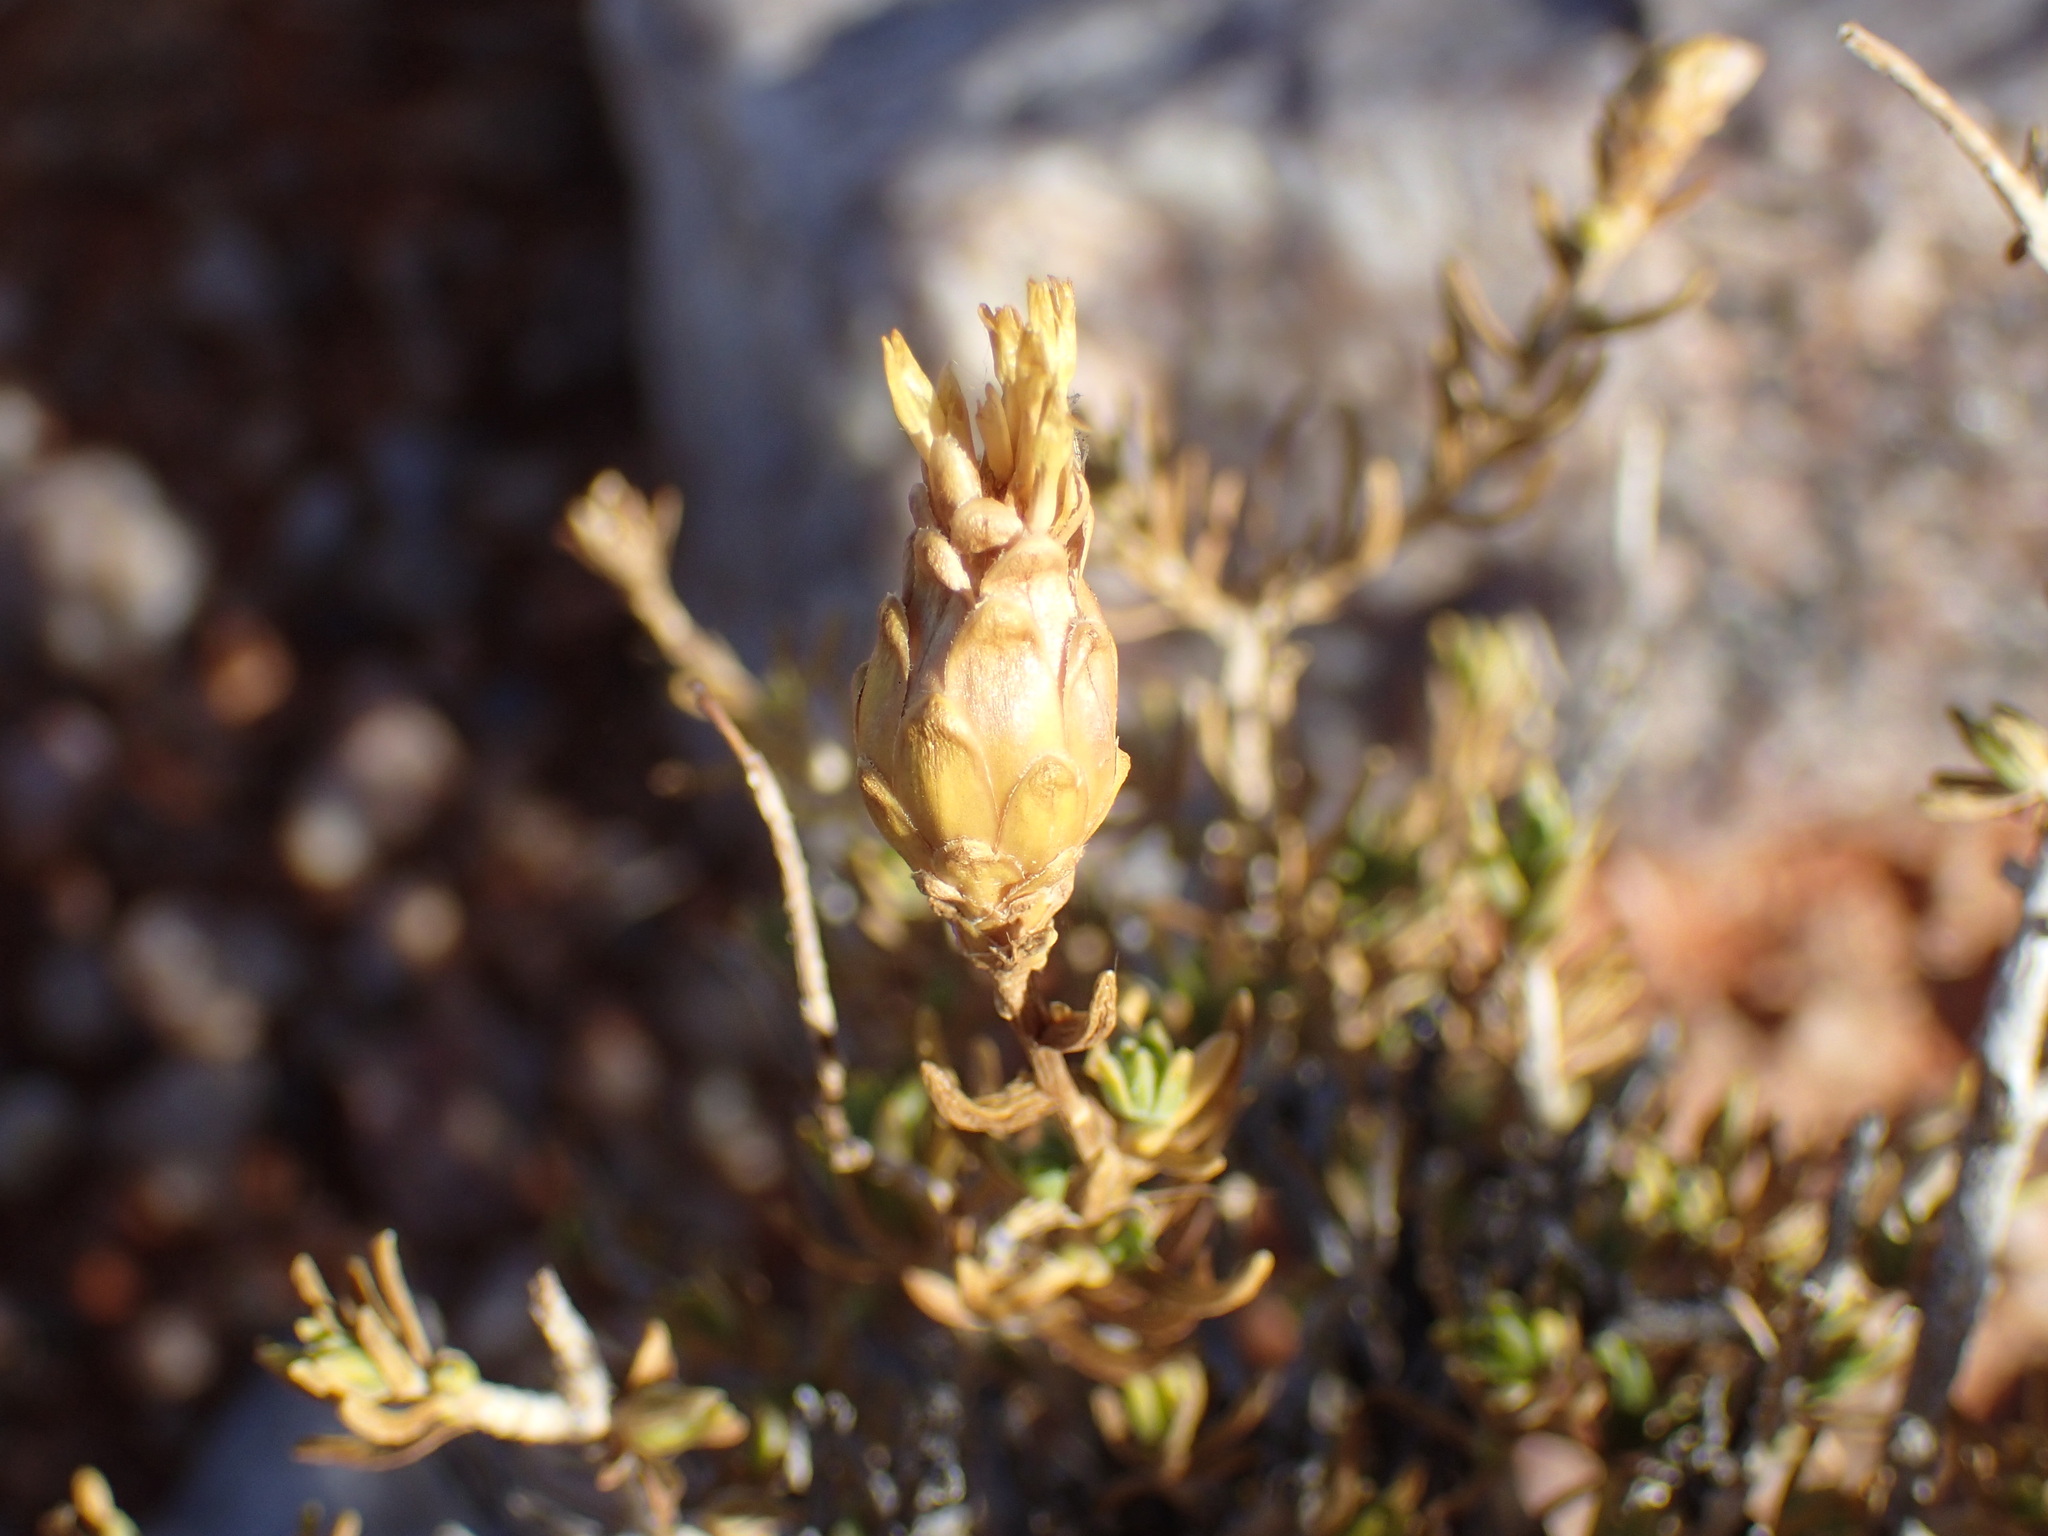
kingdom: Plantae
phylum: Tracheophyta
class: Magnoliopsida
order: Asterales
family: Asteraceae
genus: Pteronia
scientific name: Pteronia ciliata
